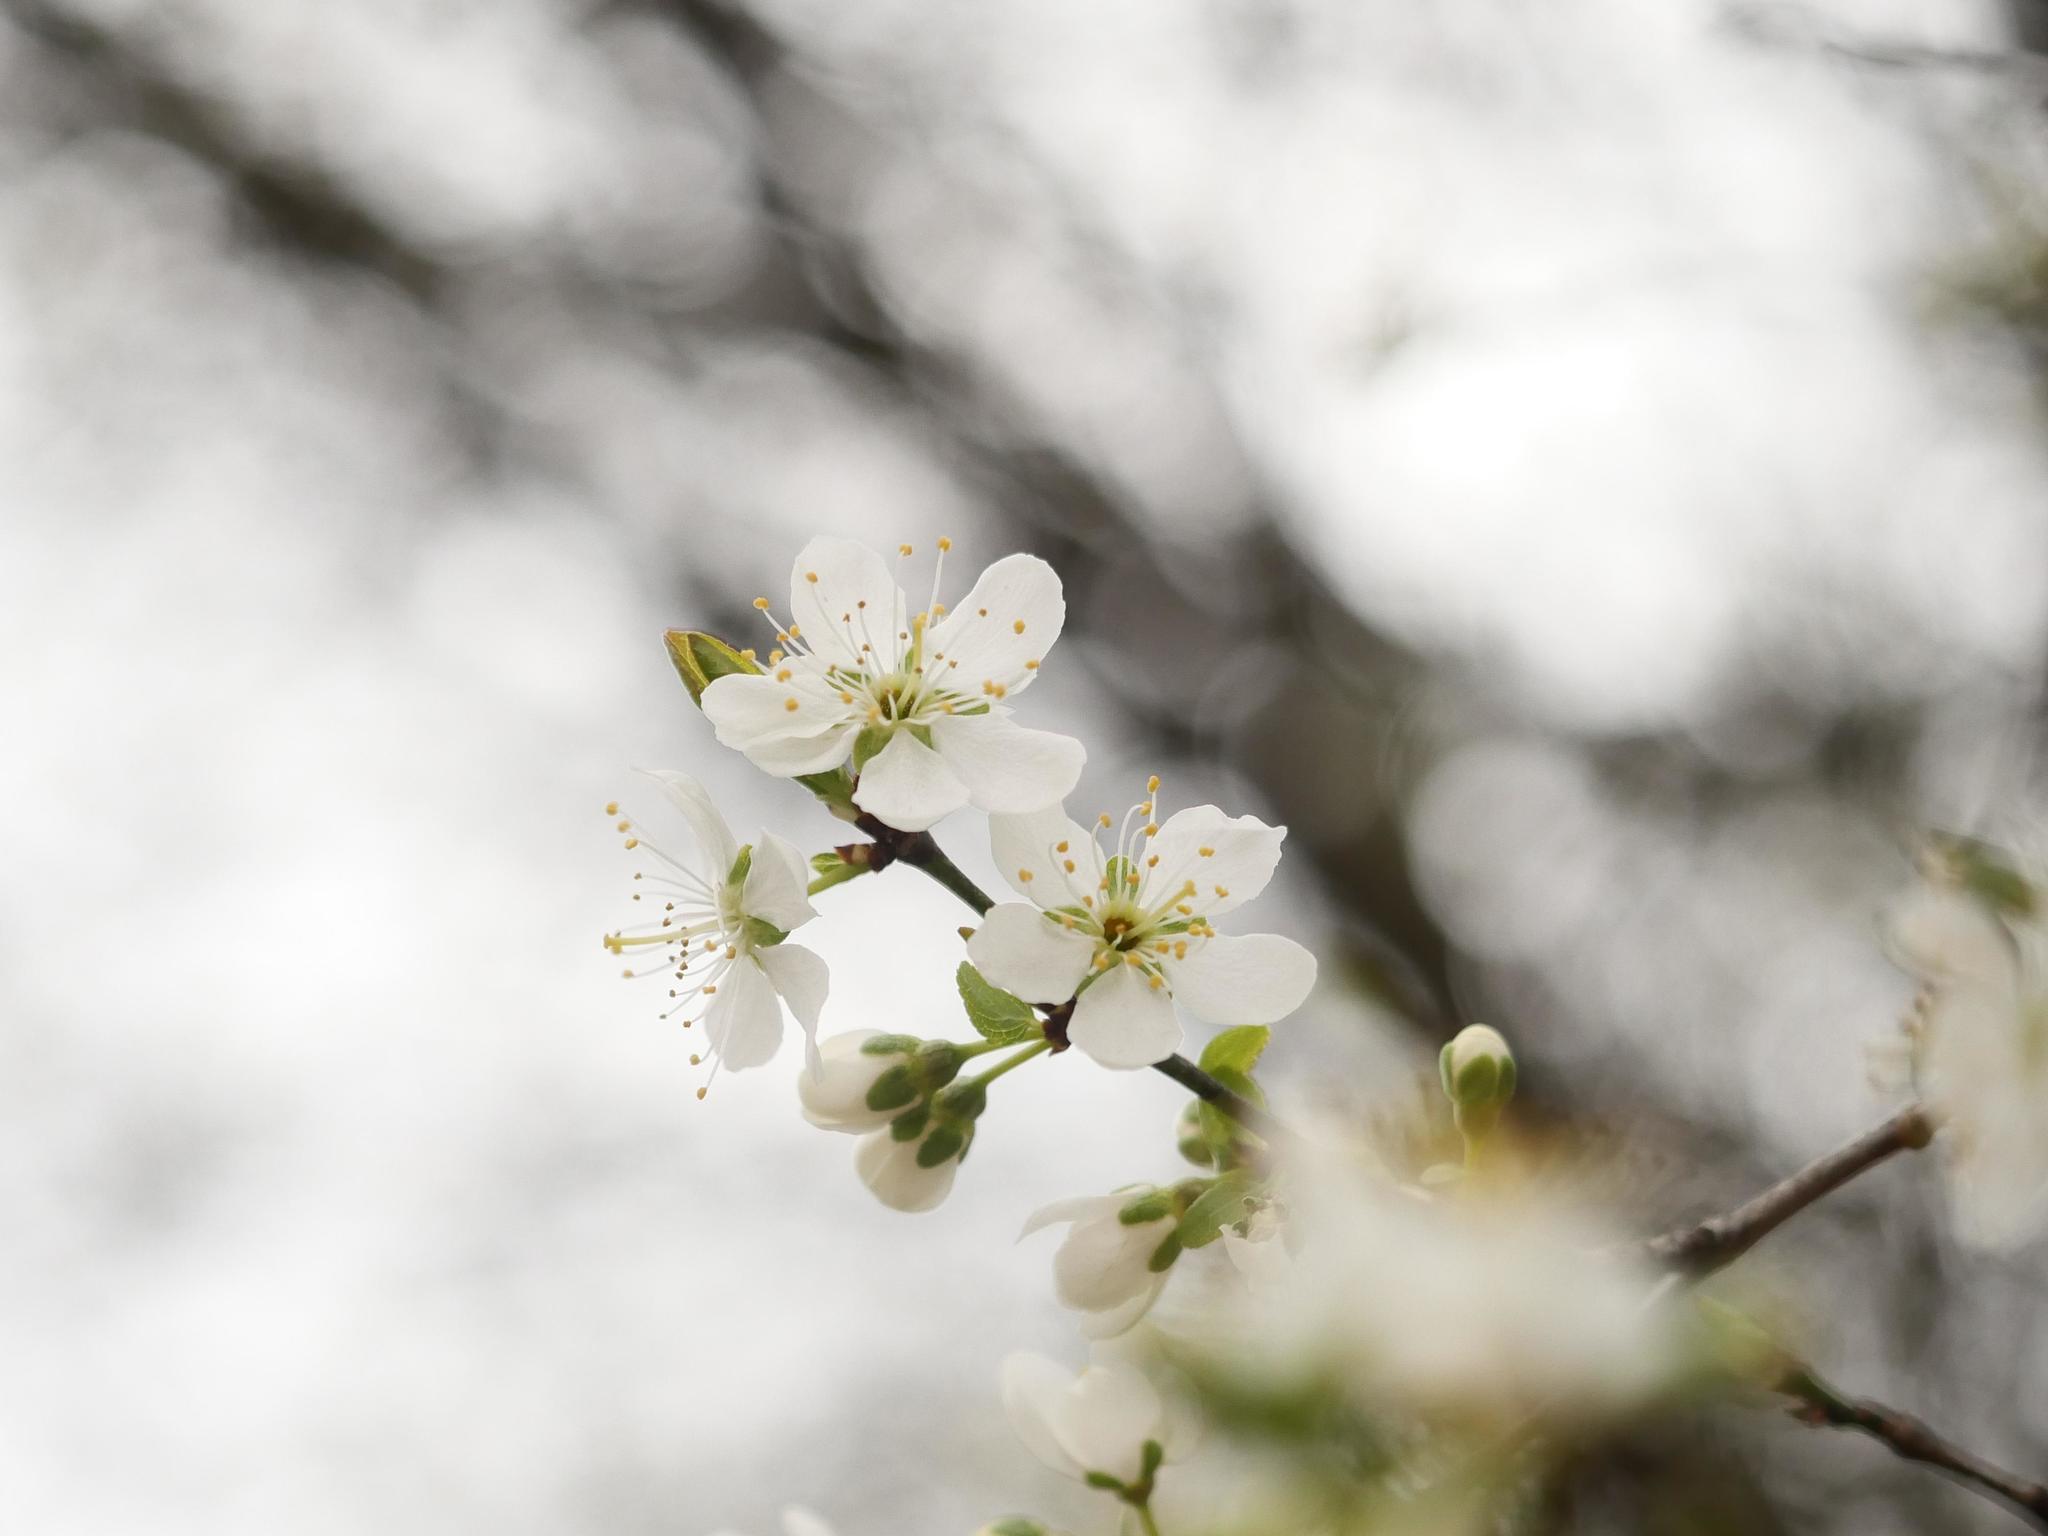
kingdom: Plantae
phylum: Tracheophyta
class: Magnoliopsida
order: Rosales
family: Rosaceae
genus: Prunus
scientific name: Prunus cerasifera
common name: Cherry plum
